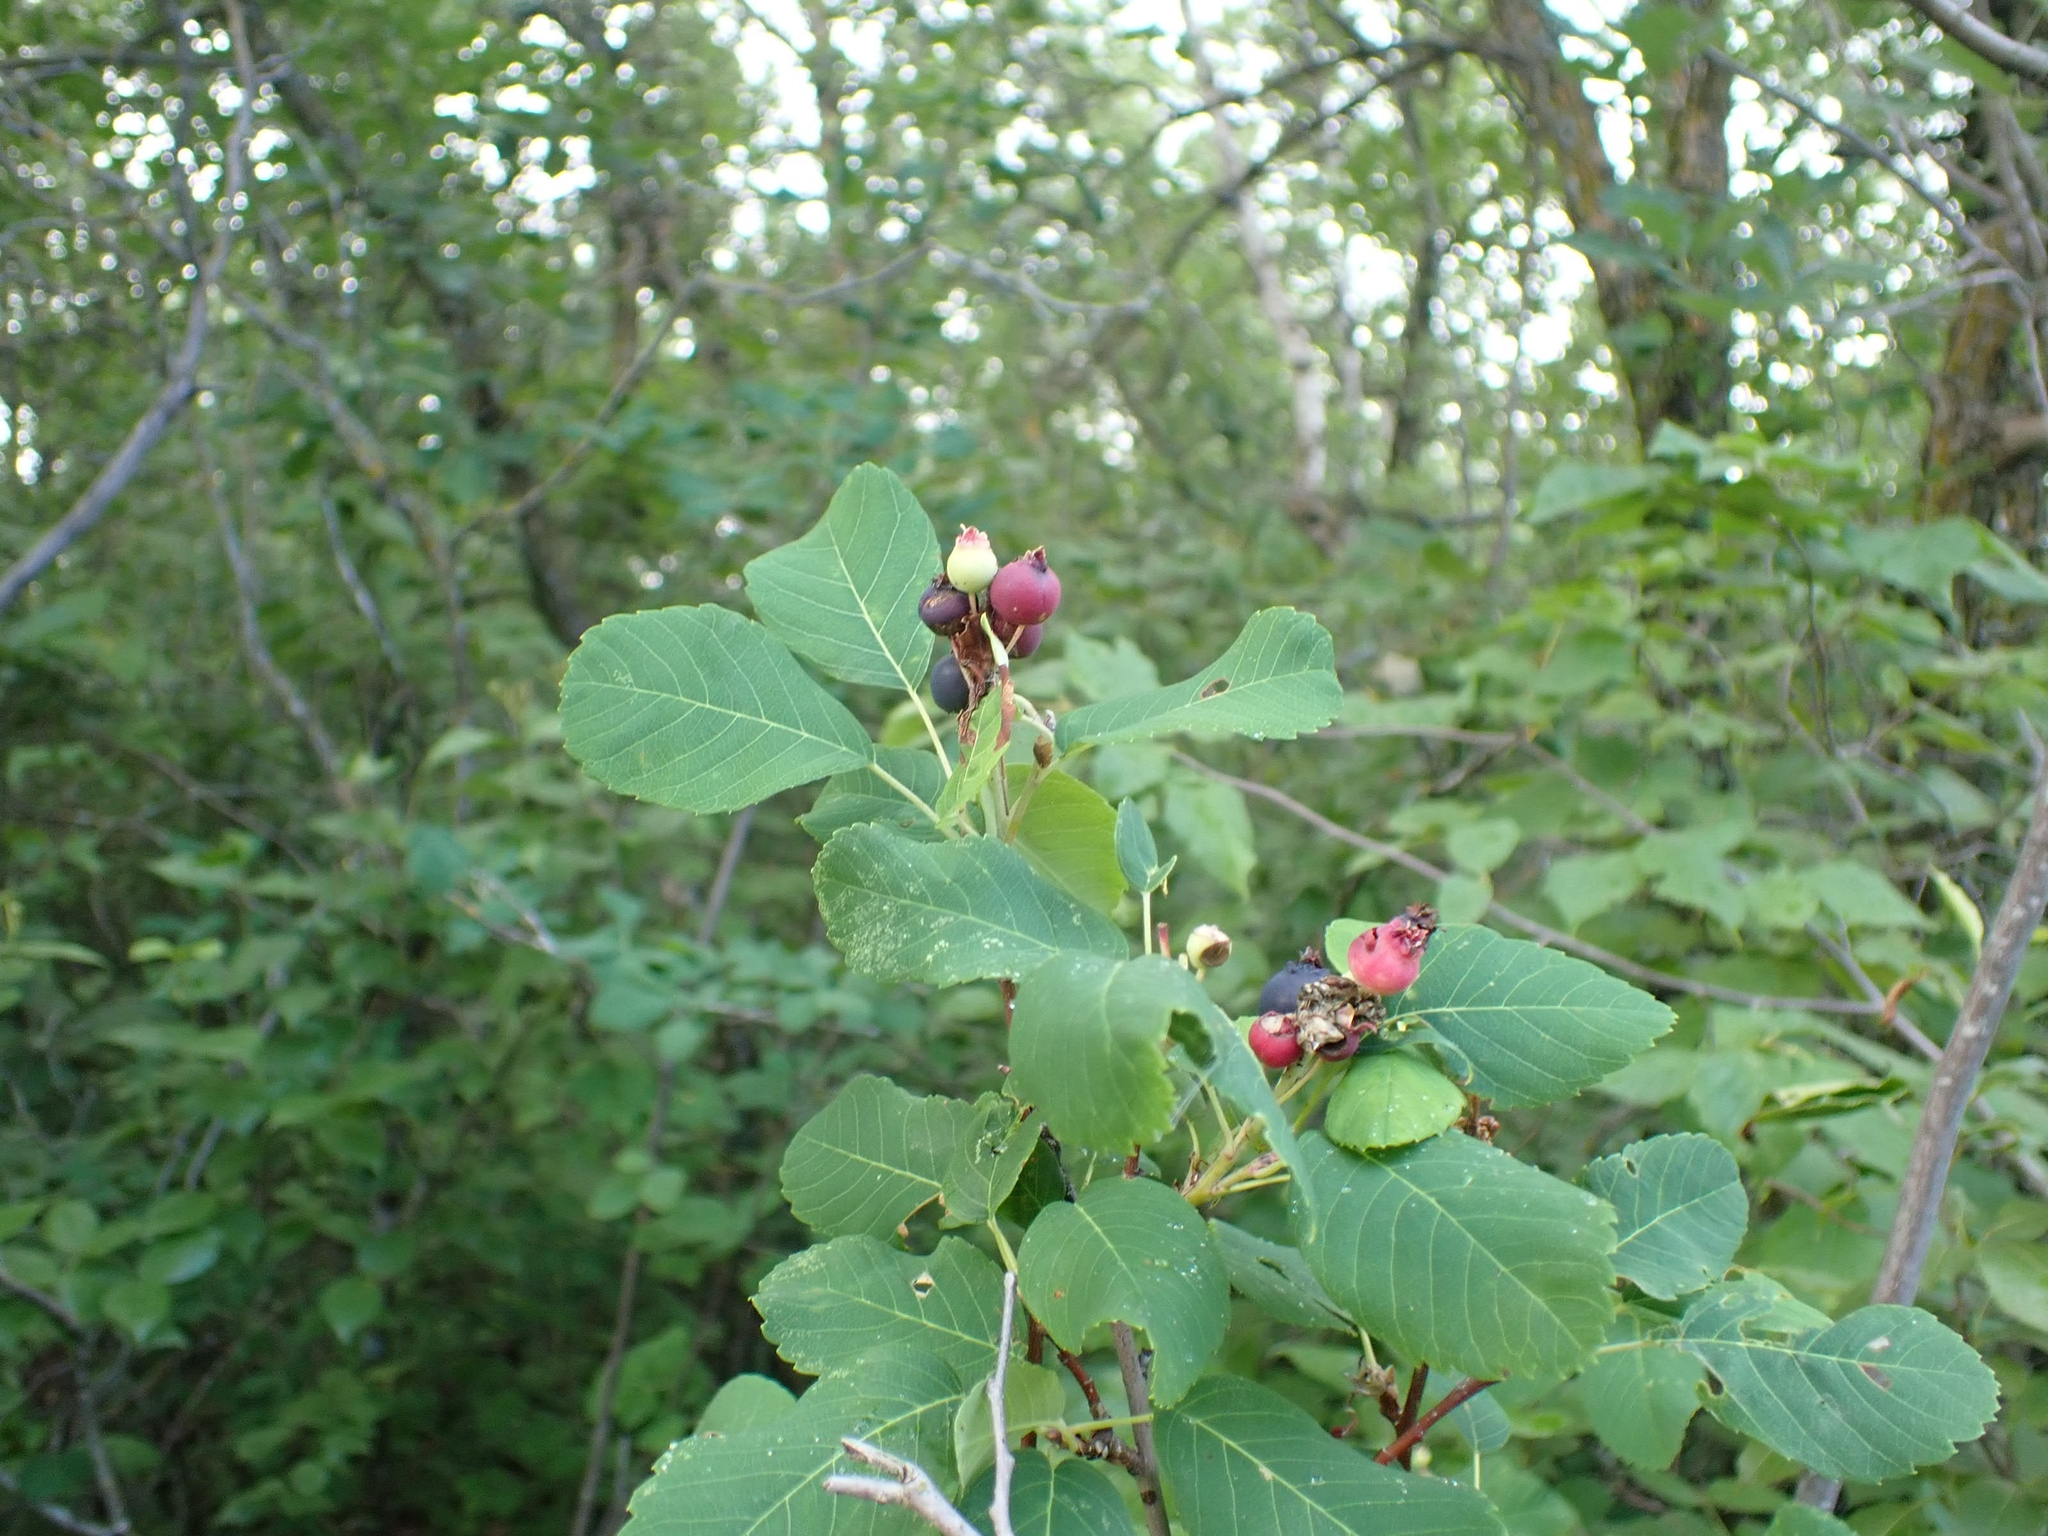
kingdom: Plantae
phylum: Tracheophyta
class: Magnoliopsida
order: Rosales
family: Rosaceae
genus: Amelanchier
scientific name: Amelanchier alnifolia
